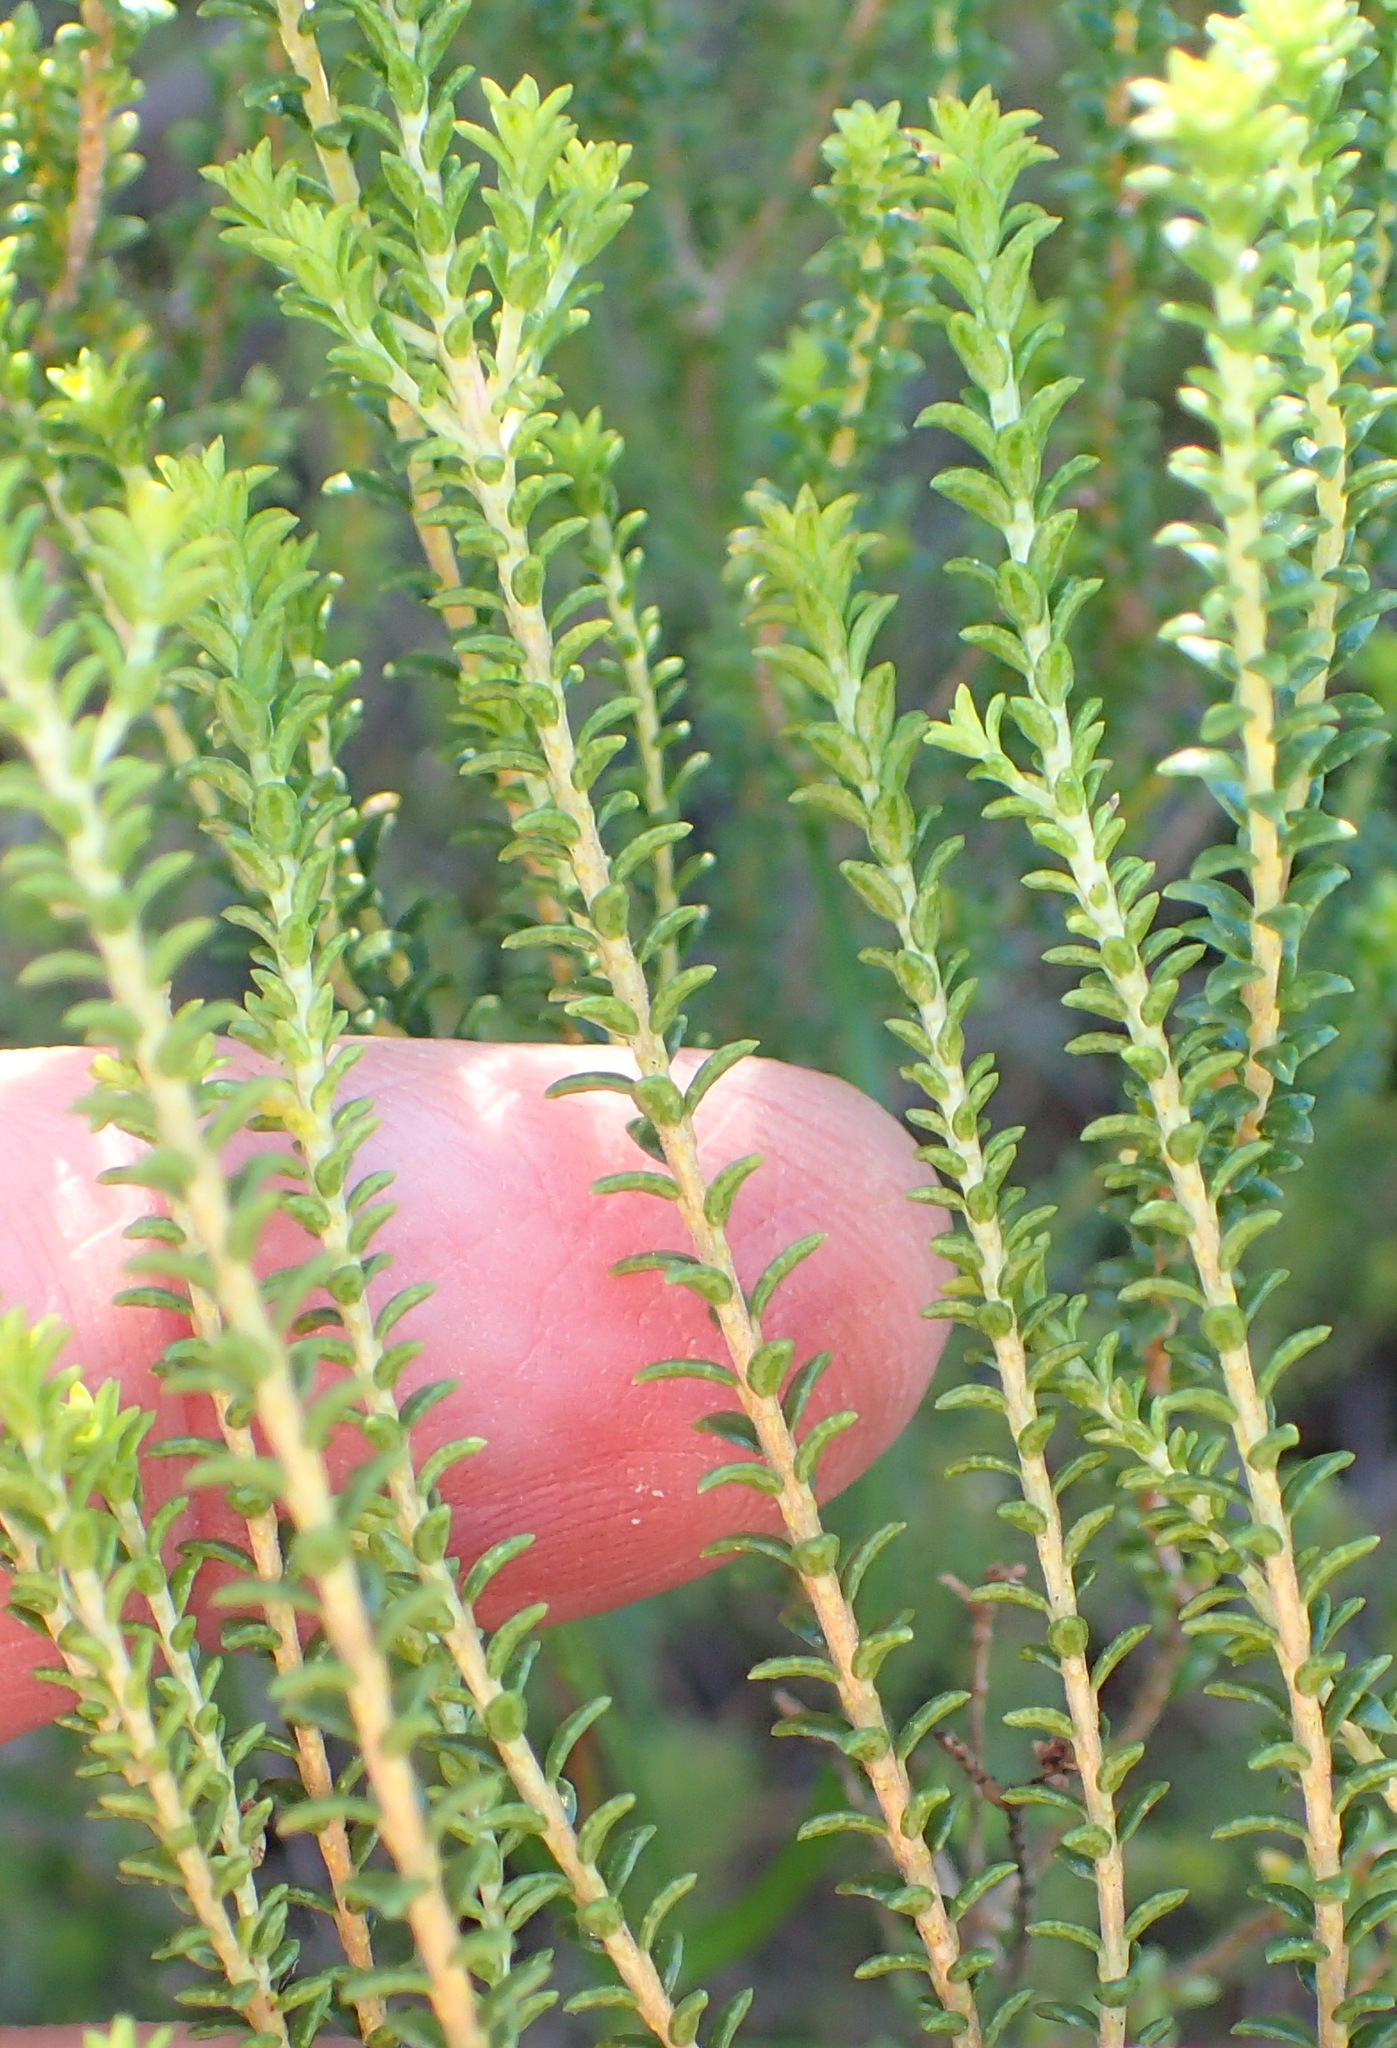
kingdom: Plantae
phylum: Tracheophyta
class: Magnoliopsida
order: Sapindales
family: Rutaceae
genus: Agathosma
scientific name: Agathosma capensis
